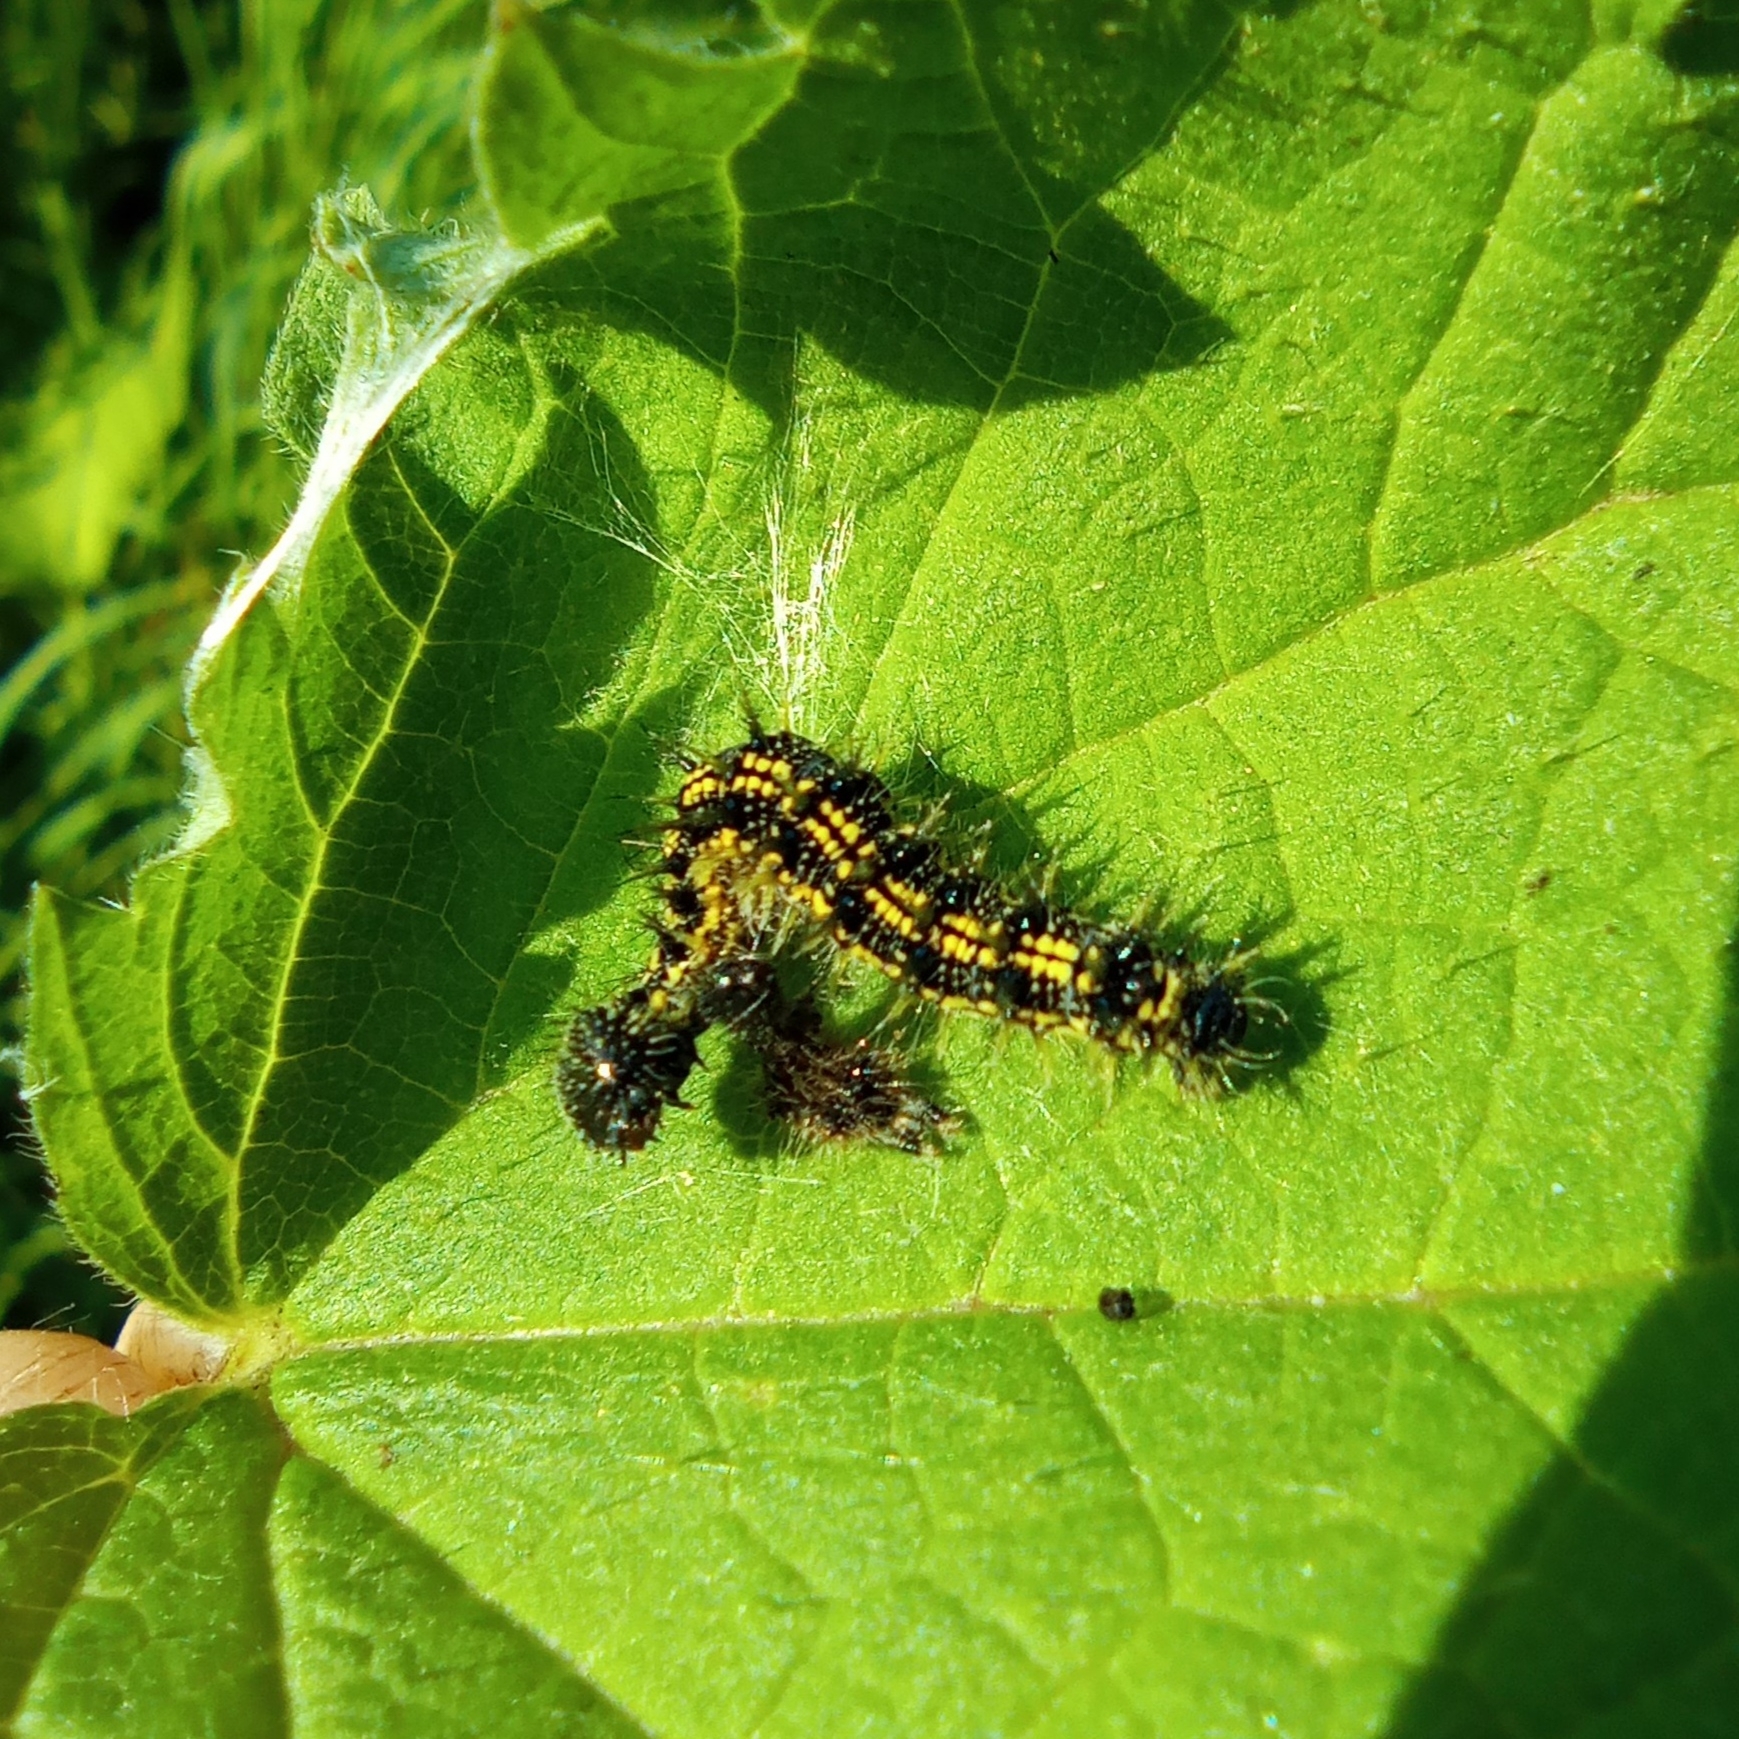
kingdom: Animalia
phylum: Arthropoda
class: Insecta
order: Lepidoptera
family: Nymphalidae
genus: Aglais
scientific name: Aglais urticae
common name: Small tortoiseshell
